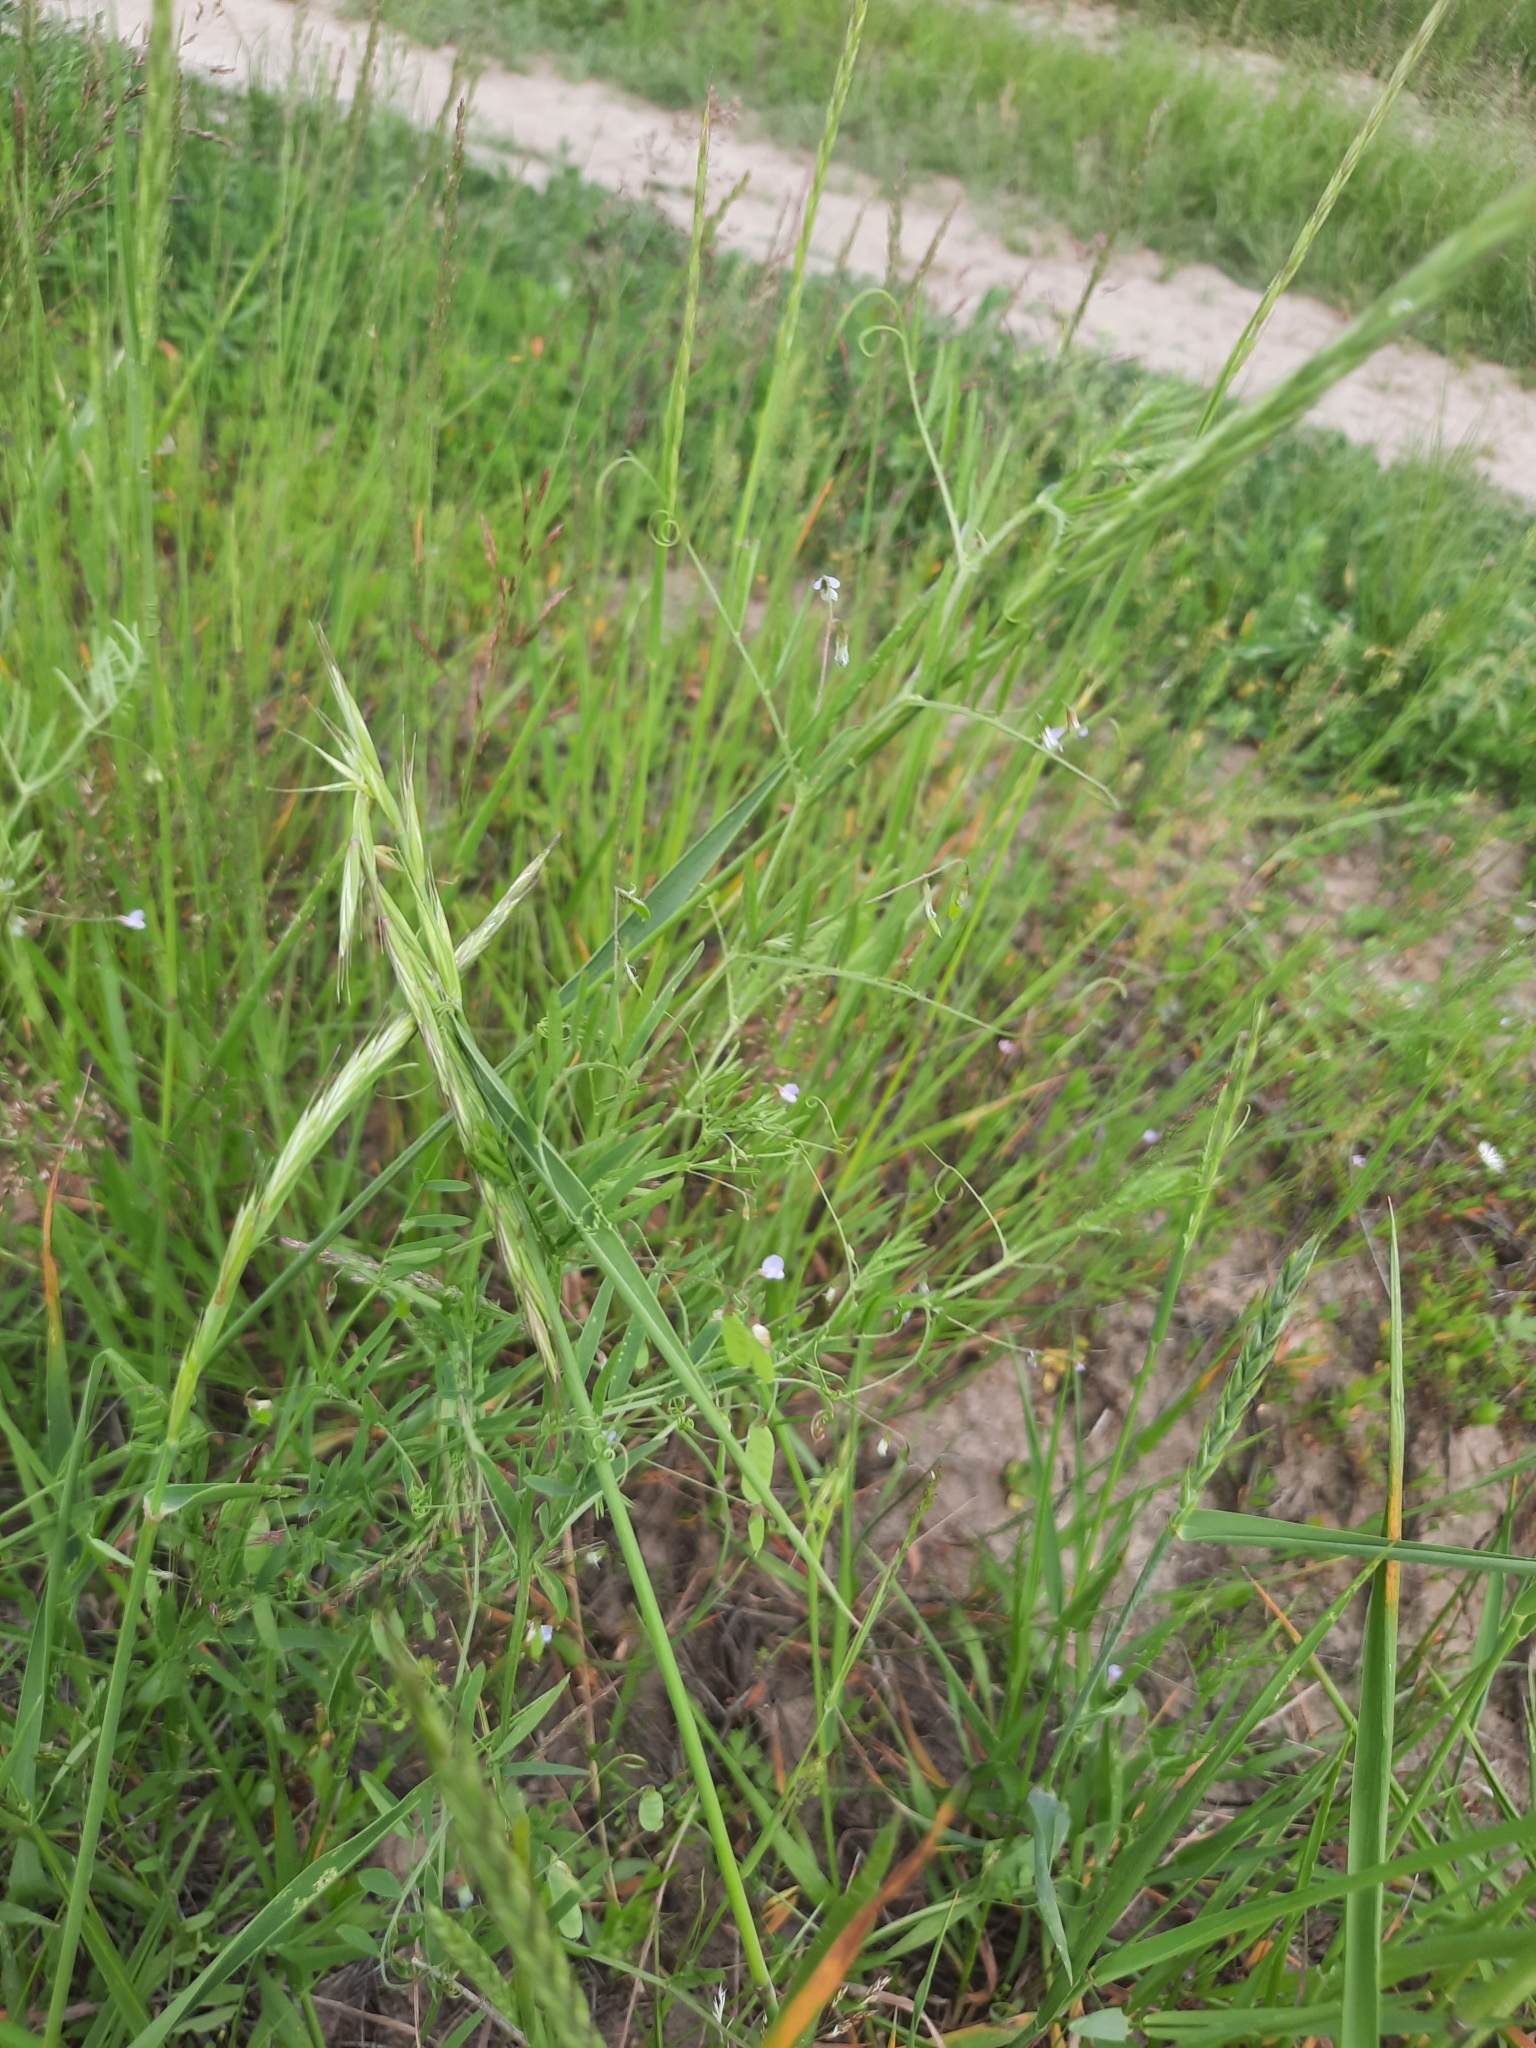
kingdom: Plantae
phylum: Tracheophyta
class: Magnoliopsida
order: Fabales
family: Fabaceae
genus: Vicia
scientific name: Vicia tetrasperma
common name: Smooth tare
